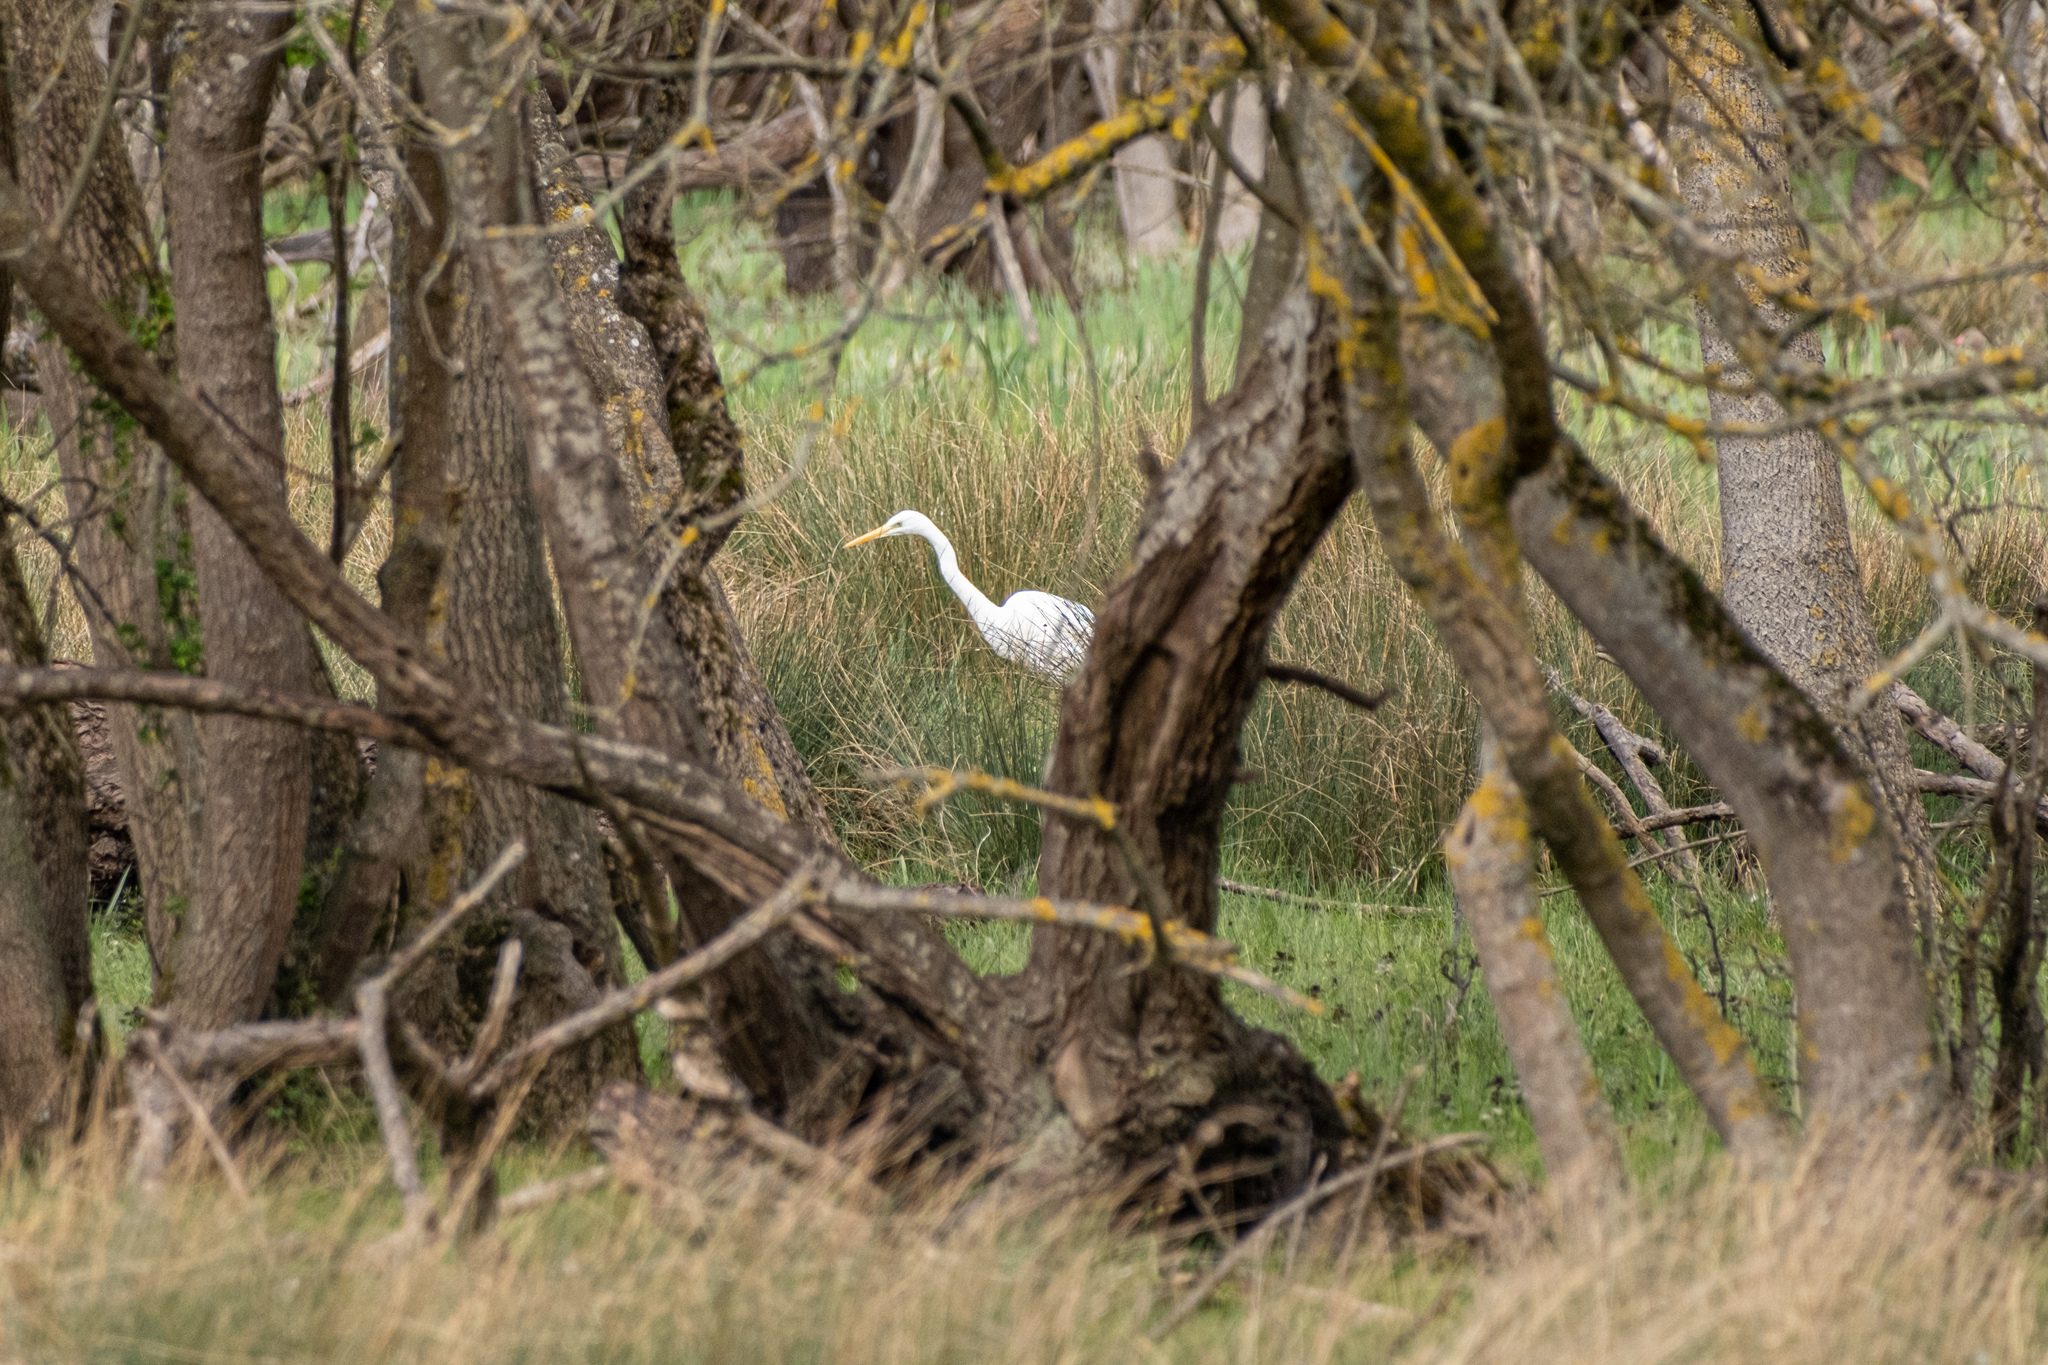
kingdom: Animalia
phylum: Chordata
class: Aves
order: Pelecaniformes
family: Ardeidae
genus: Ardea
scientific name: Ardea alba
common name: Great egret
